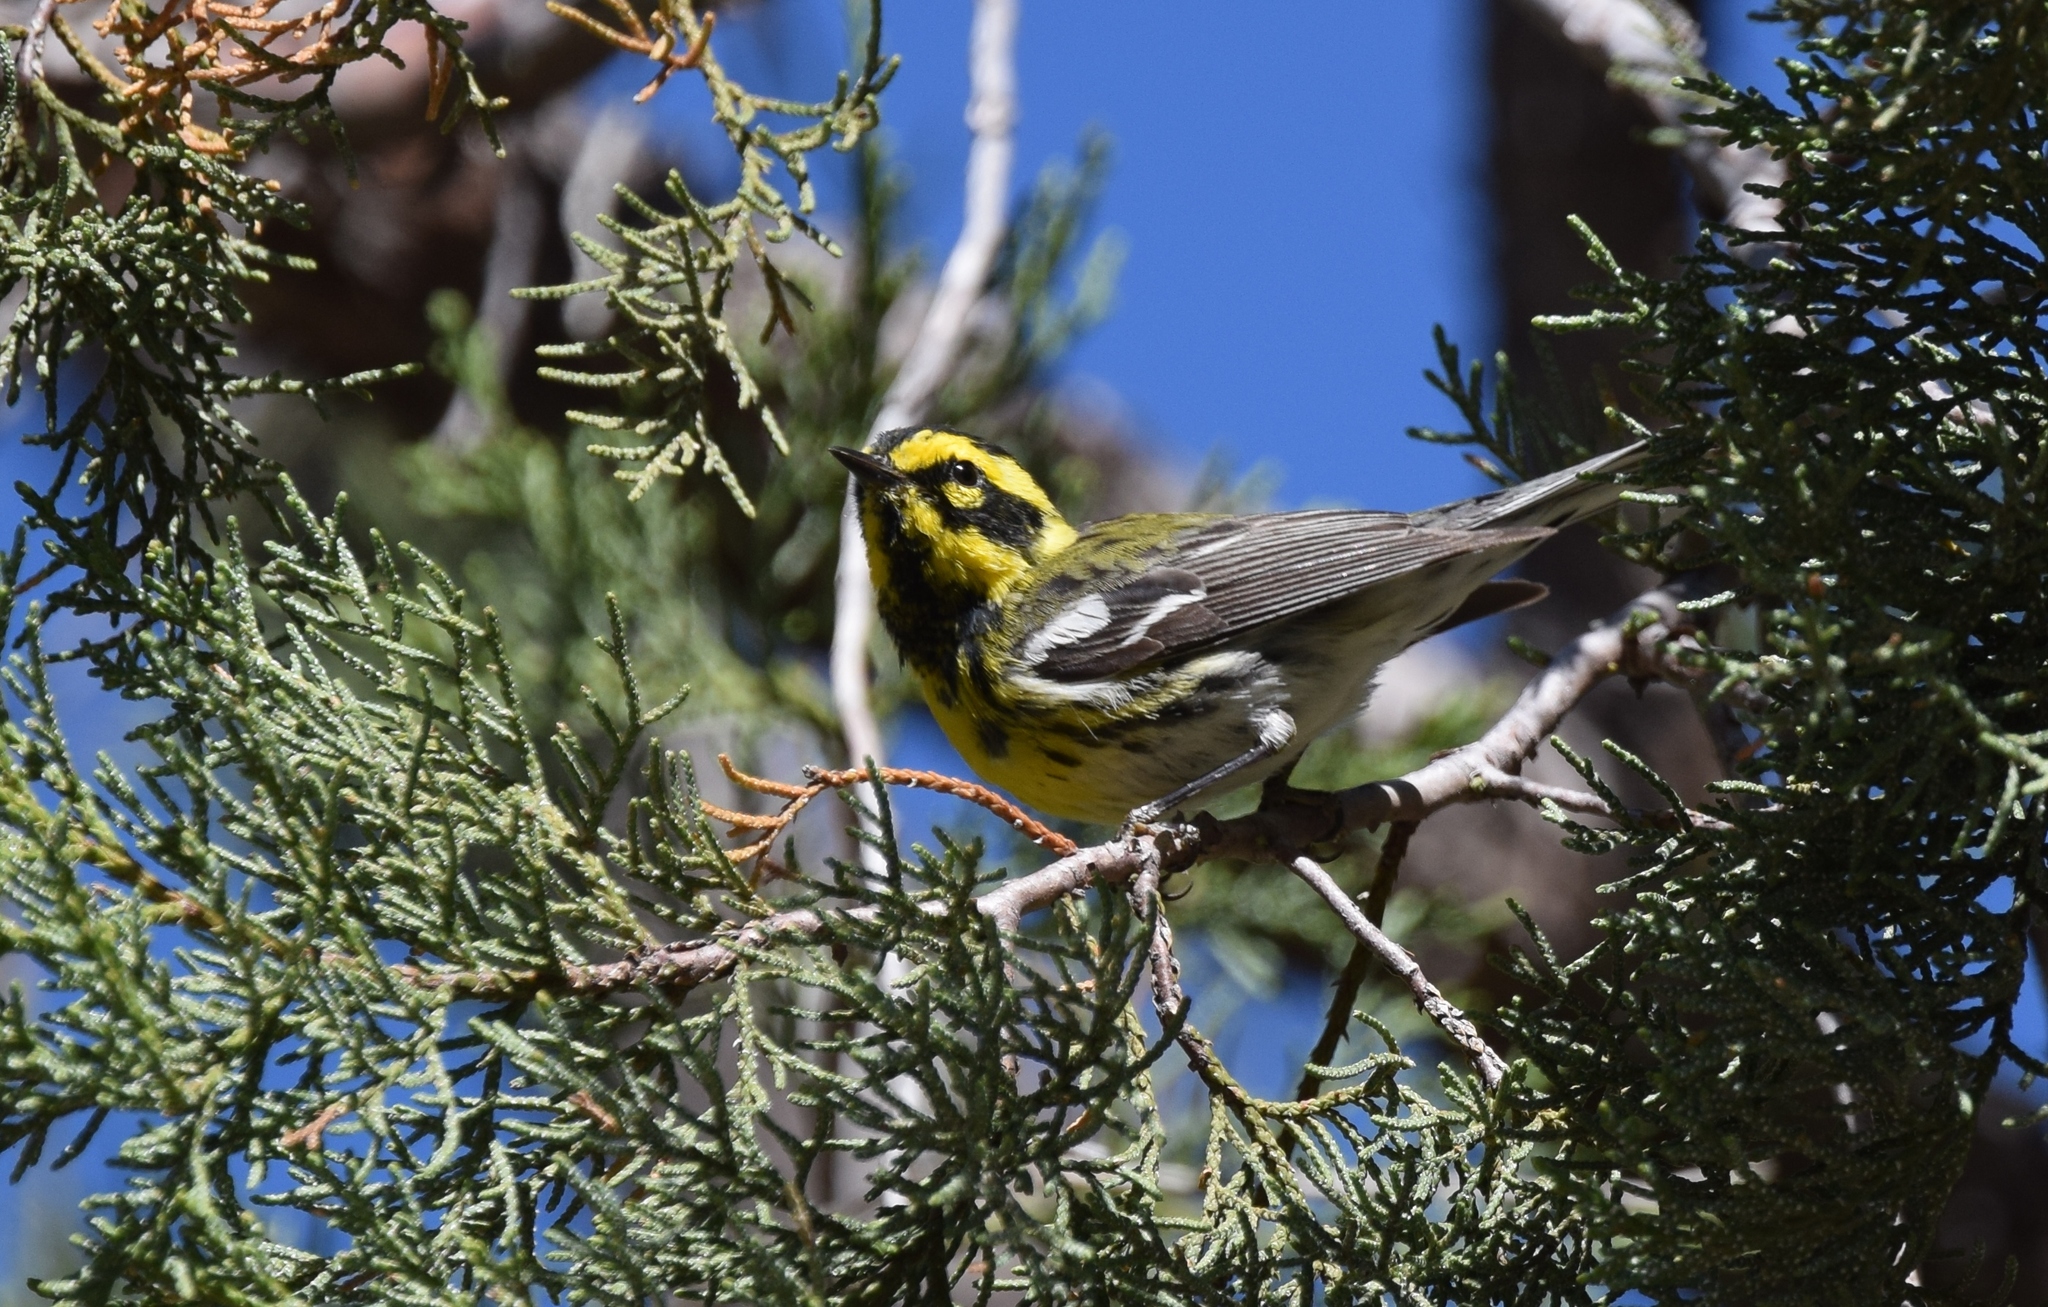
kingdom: Animalia
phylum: Chordata
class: Aves
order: Passeriformes
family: Parulidae
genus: Setophaga
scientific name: Setophaga townsendi
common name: Townsend's warbler
